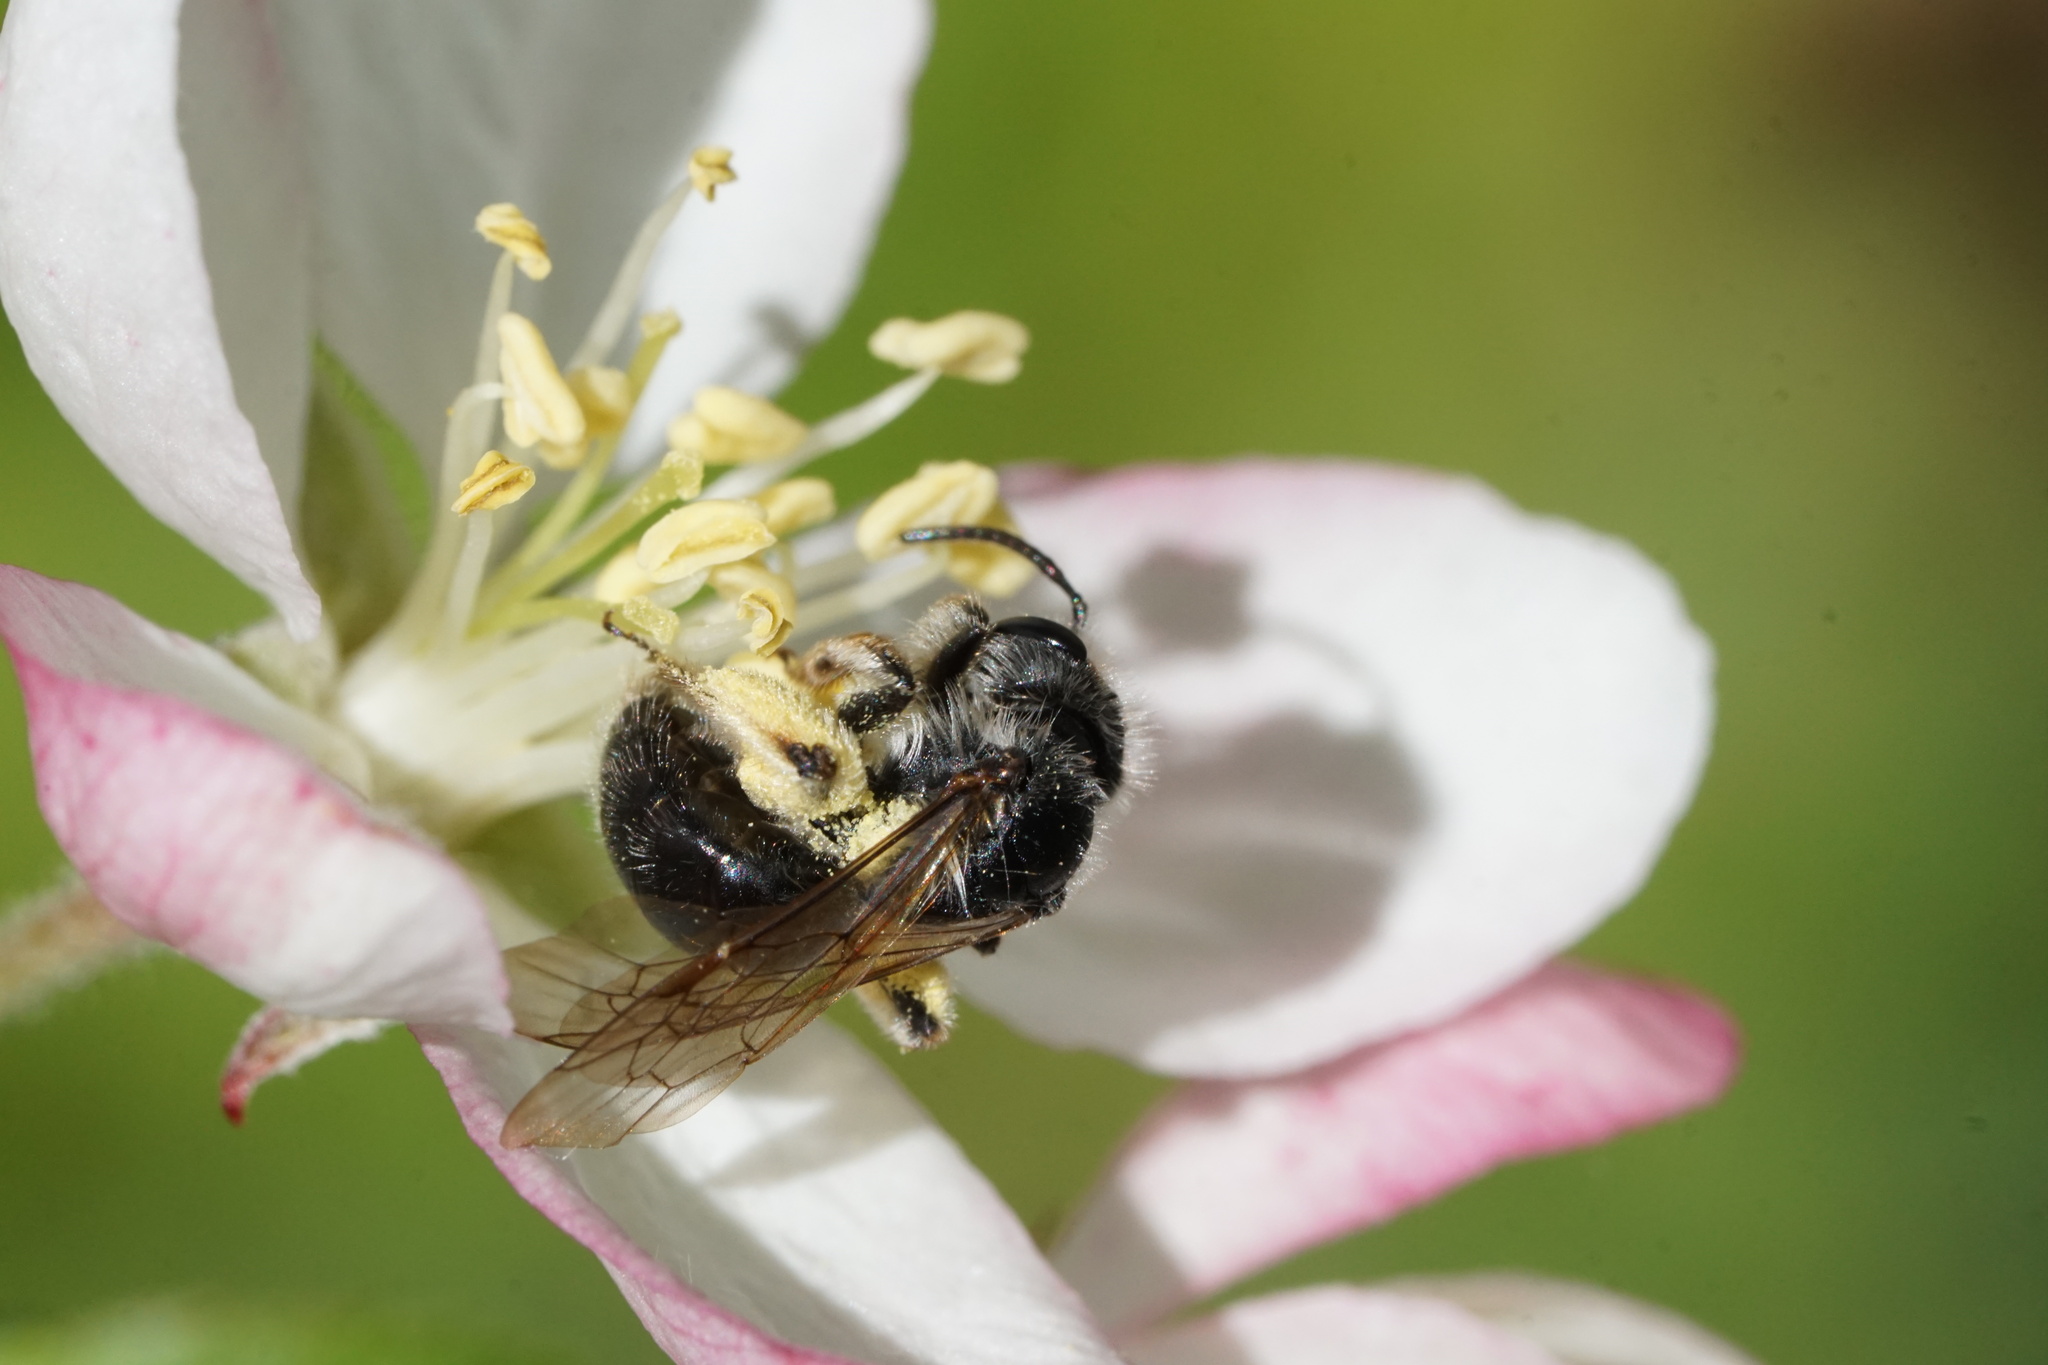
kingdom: Animalia
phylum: Arthropoda
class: Insecta
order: Hymenoptera
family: Andrenidae
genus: Andrena
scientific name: Andrena tridens
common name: Trident miner bee
